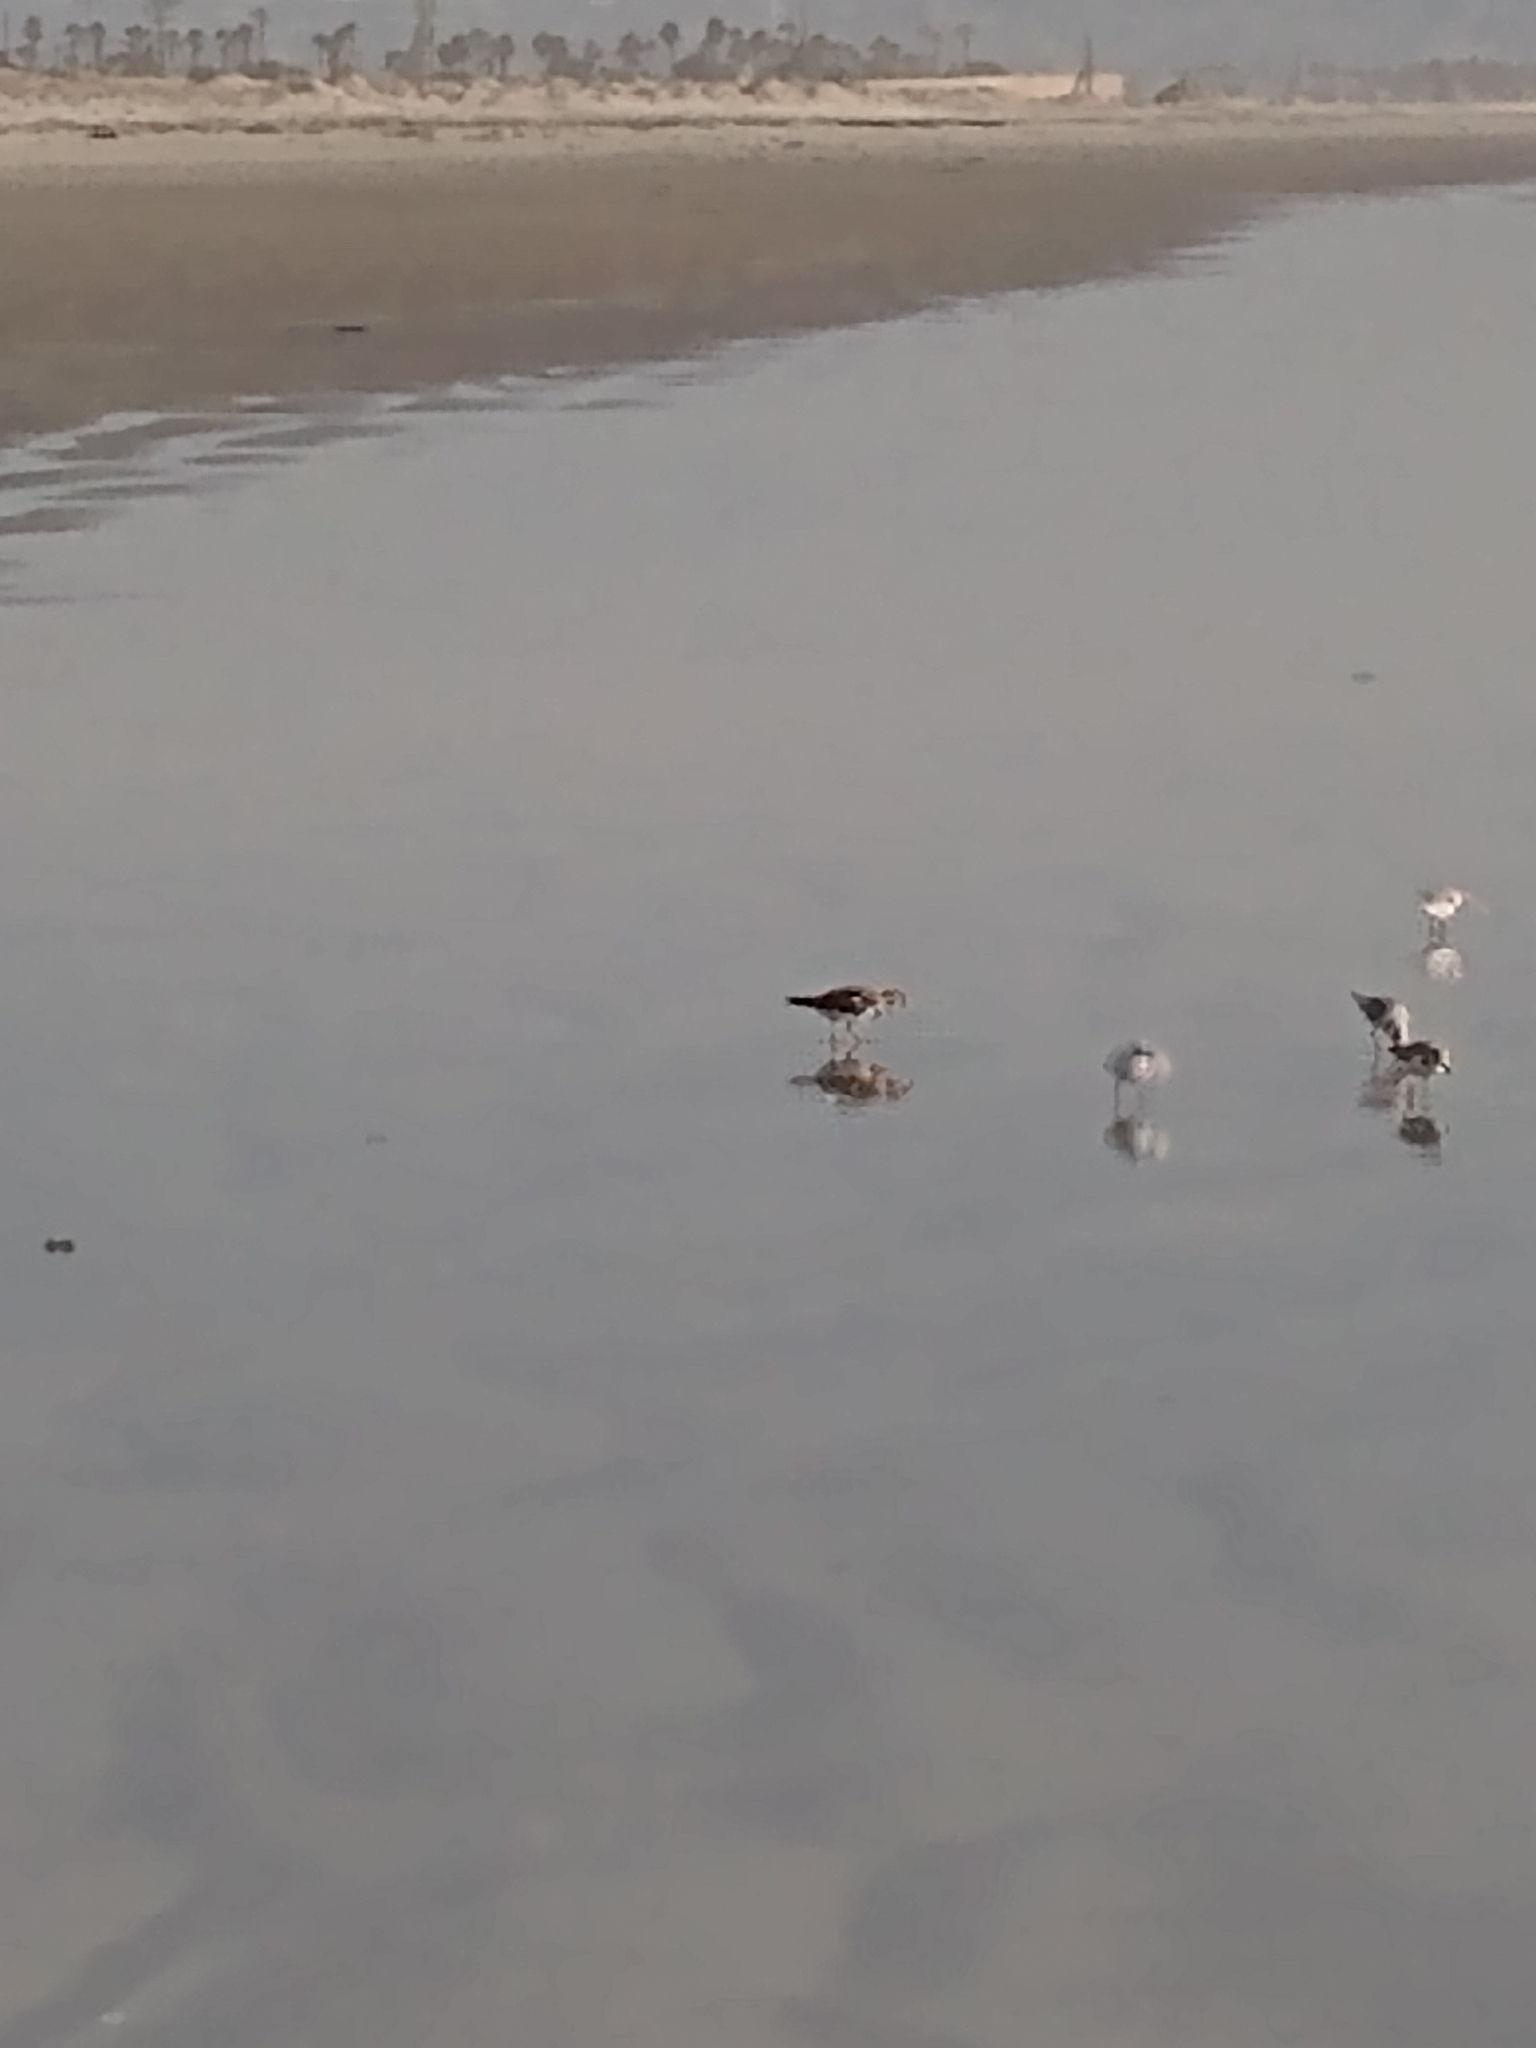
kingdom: Animalia
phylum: Chordata
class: Aves
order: Charadriiformes
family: Scolopacidae
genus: Arenaria
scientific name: Arenaria interpres
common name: Ruddy turnstone
